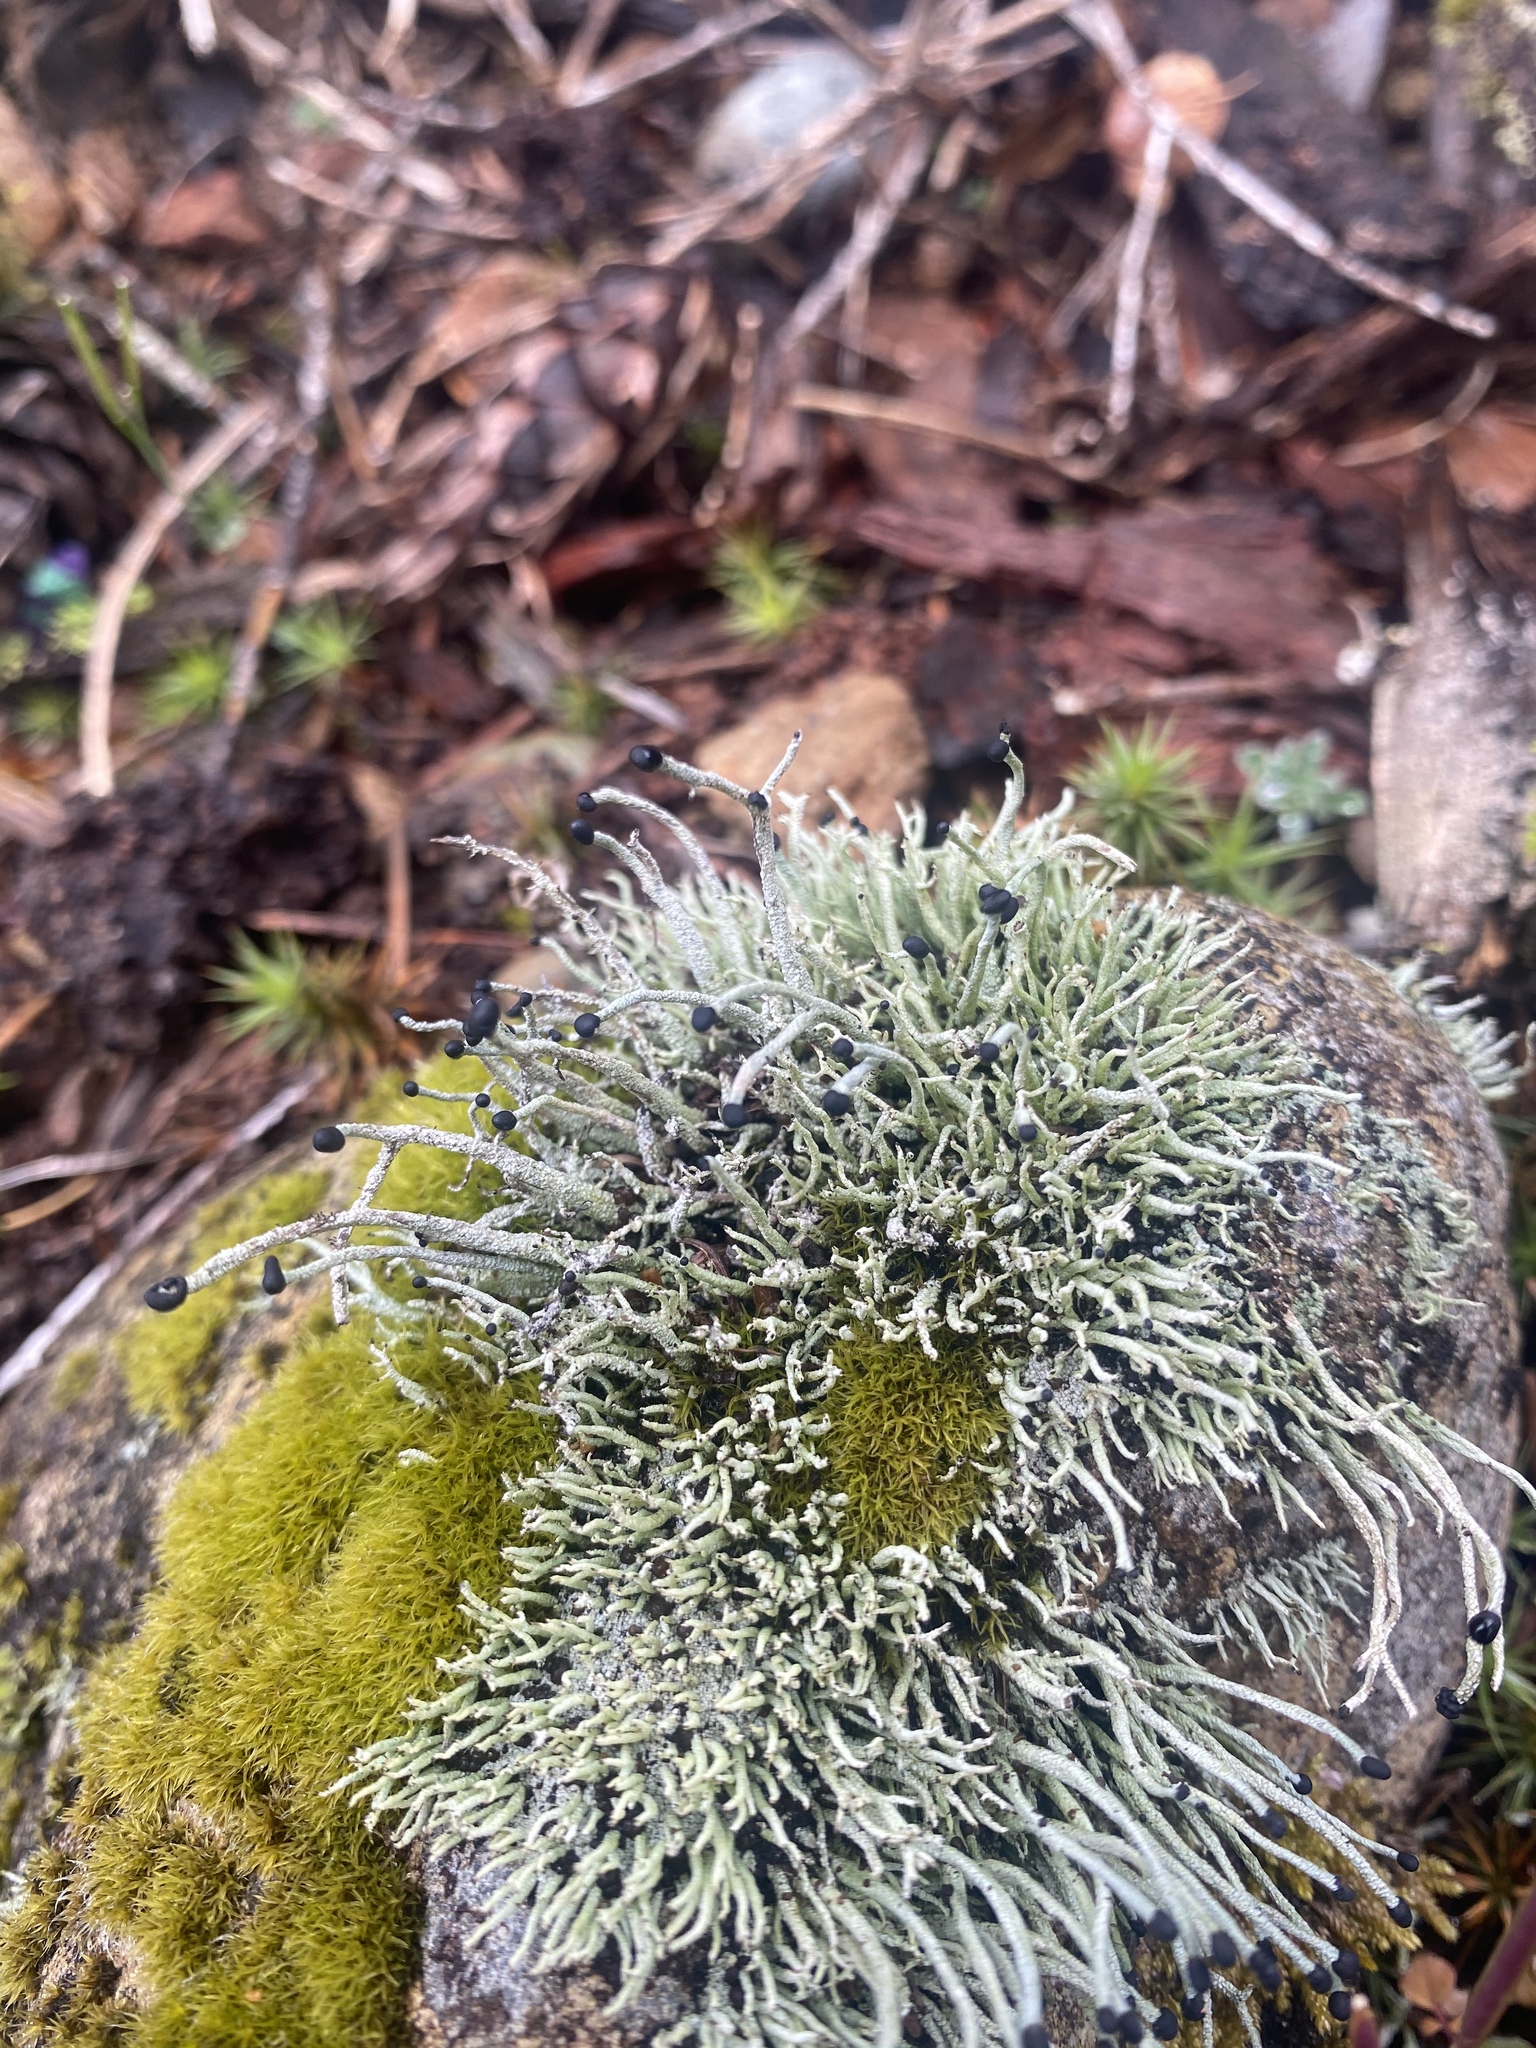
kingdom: Fungi
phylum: Ascomycota
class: Lecanoromycetes
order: Lecanorales
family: Cladoniaceae
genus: Pilophorus
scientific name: Pilophorus acicularis
